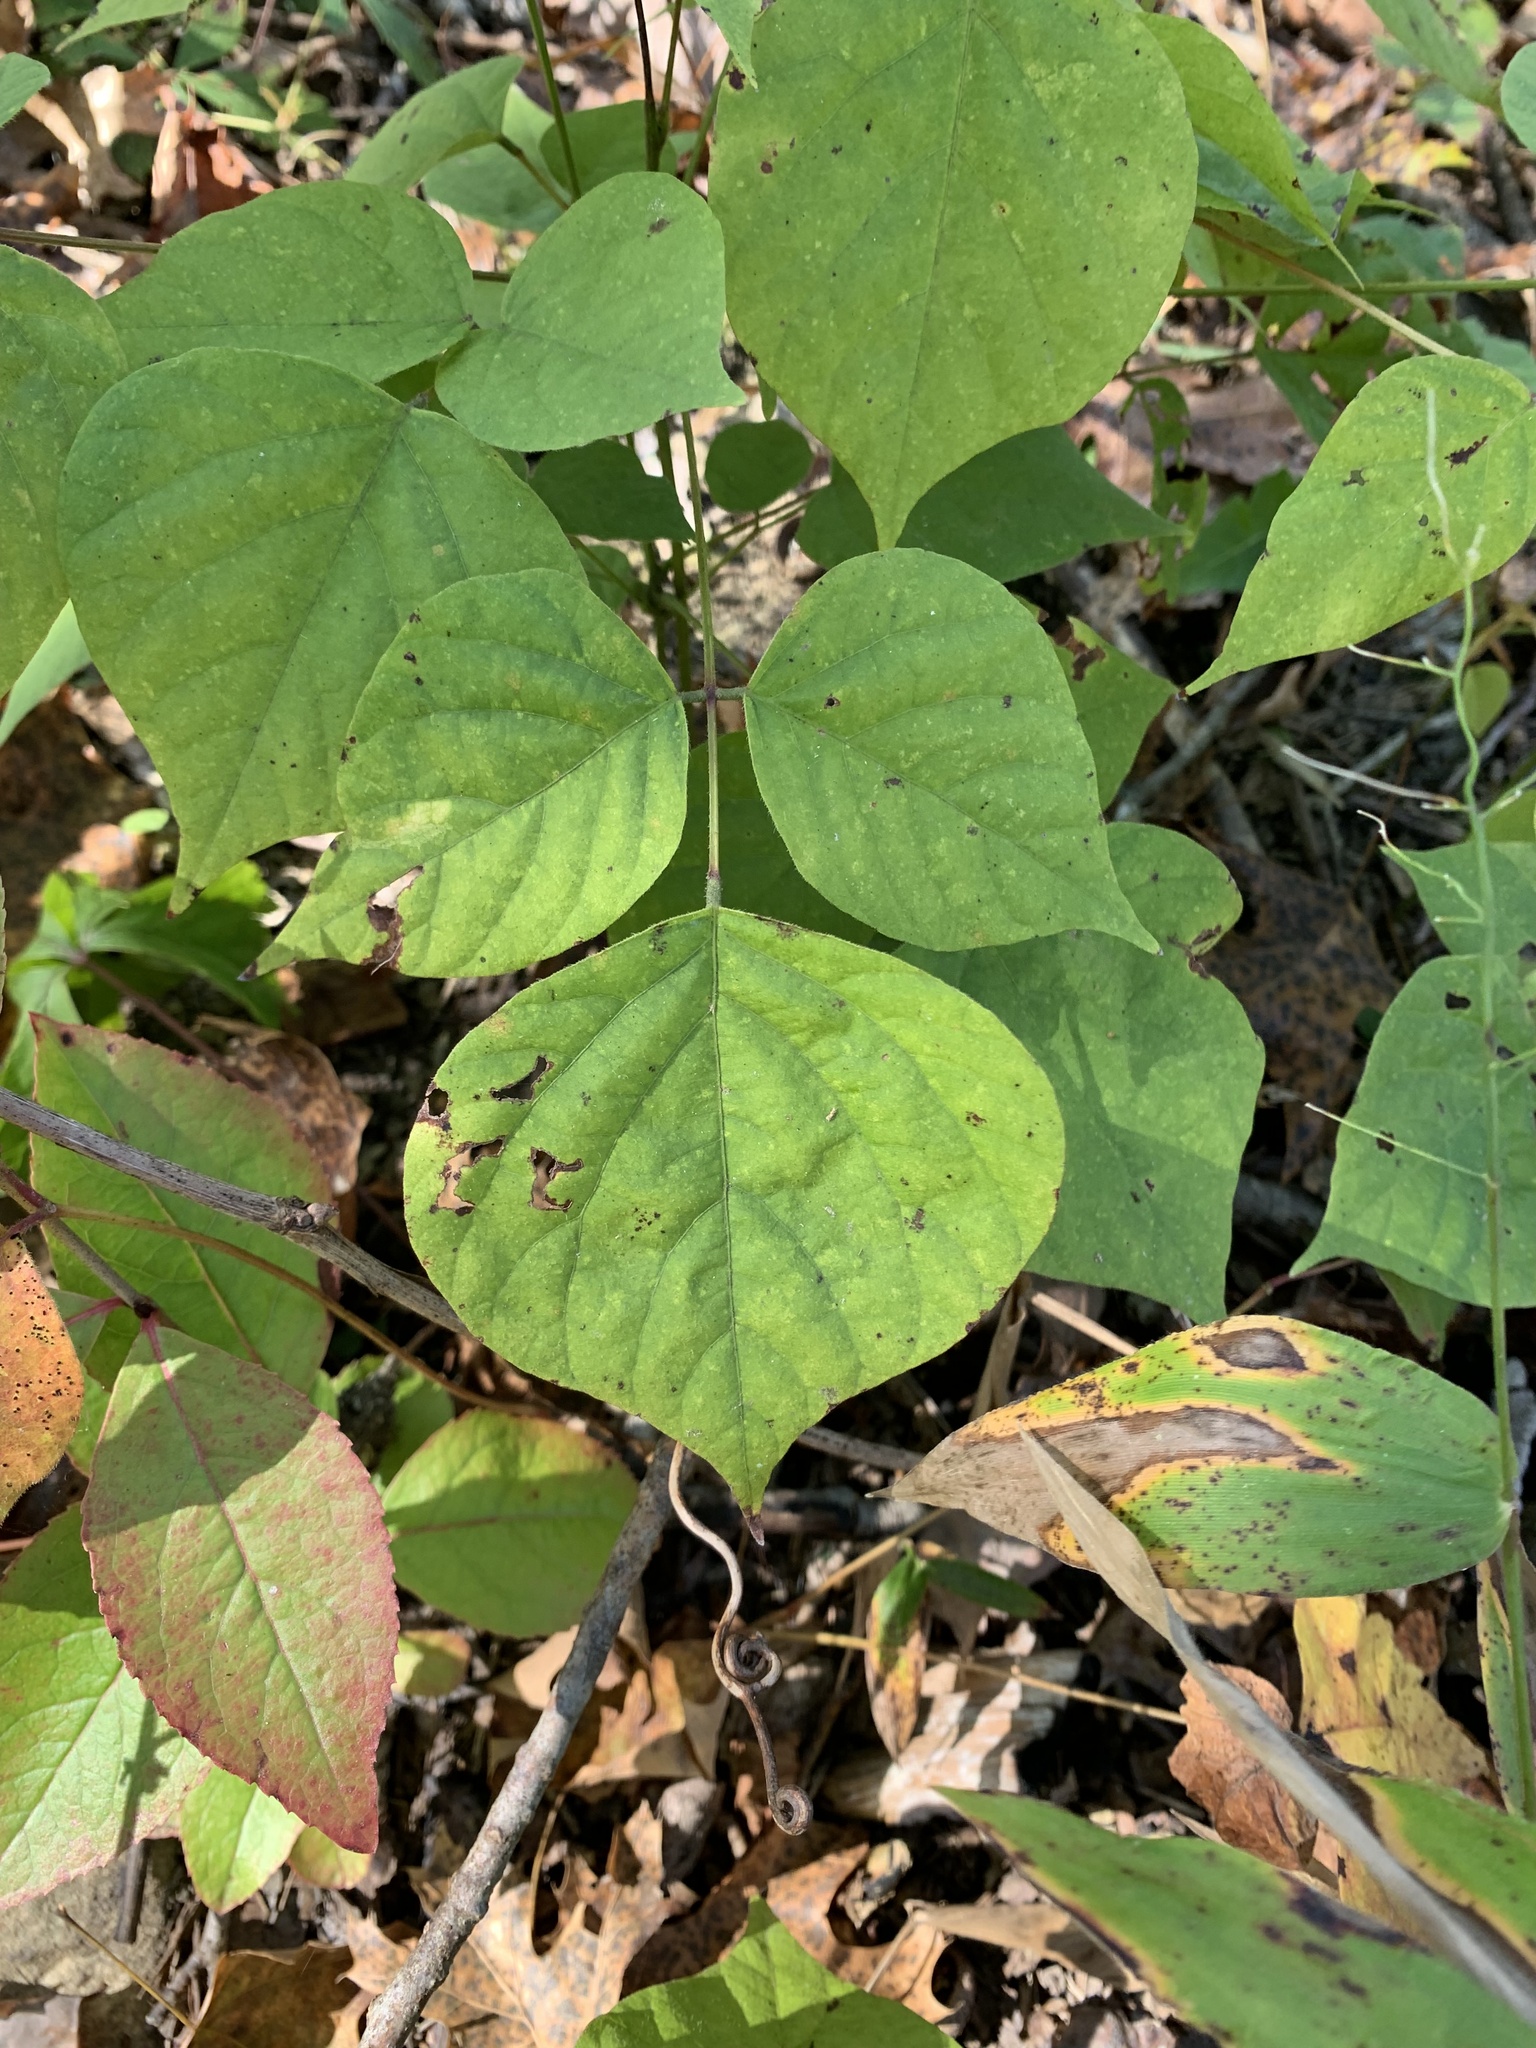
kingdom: Plantae
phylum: Tracheophyta
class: Magnoliopsida
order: Fabales
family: Fabaceae
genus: Hylodesmum
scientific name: Hylodesmum glutinosum
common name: Clustered-leaved tick-trefoil
